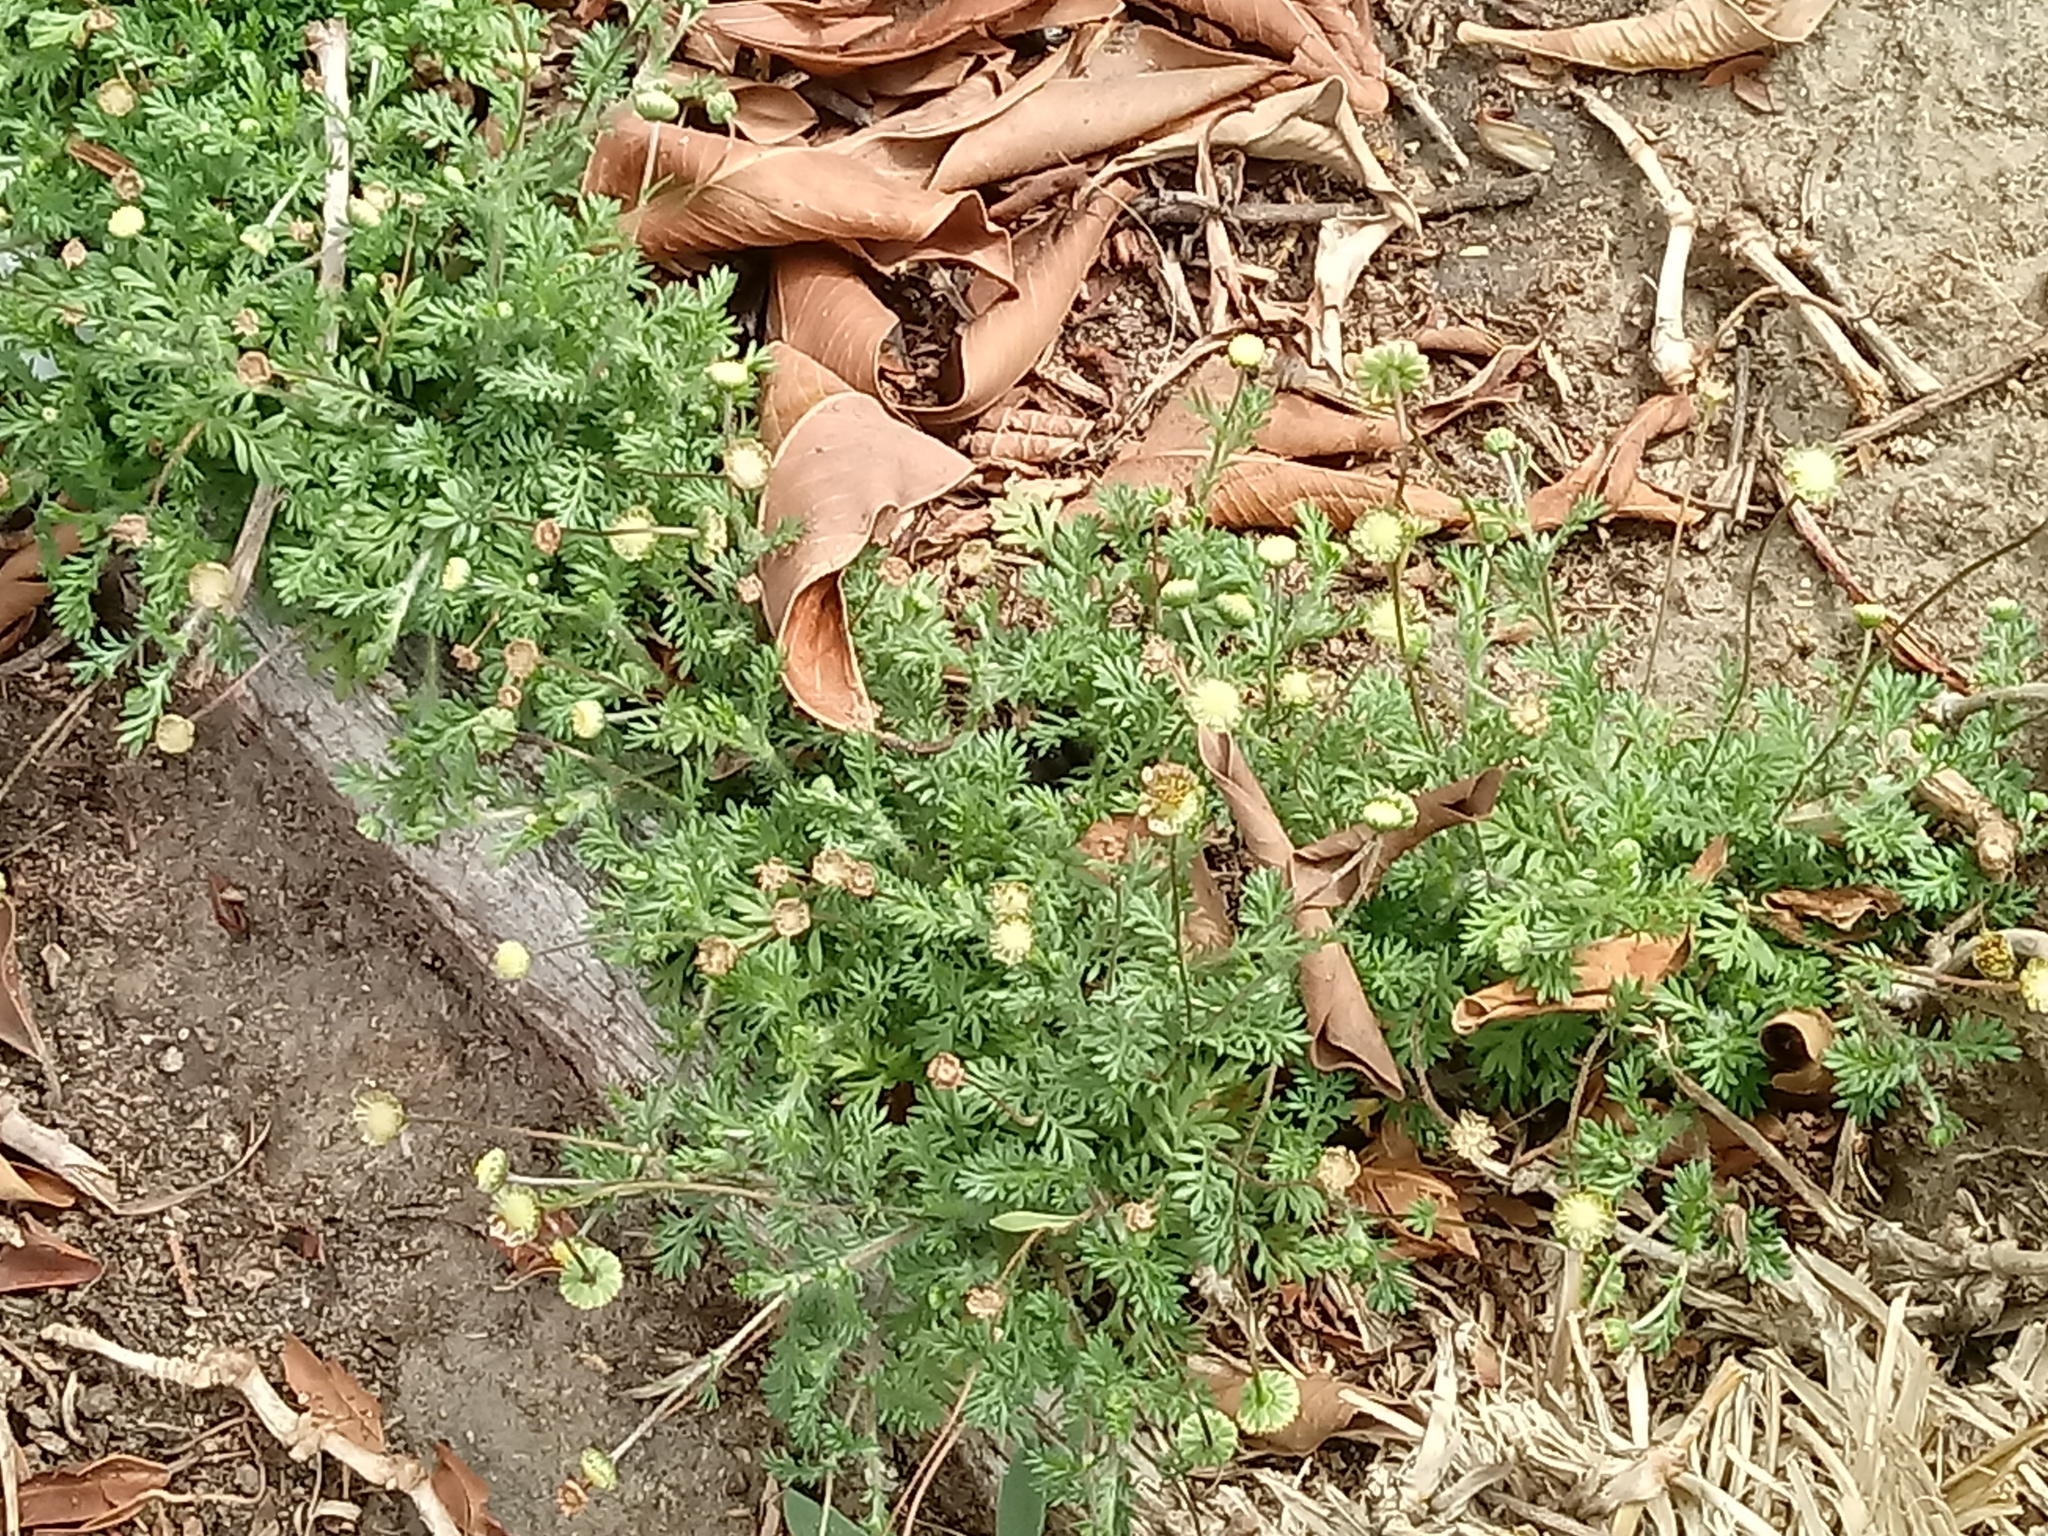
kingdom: Plantae
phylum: Tracheophyta
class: Magnoliopsida
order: Asterales
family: Asteraceae
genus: Cotula
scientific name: Cotula australis
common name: Australian waterbuttons
